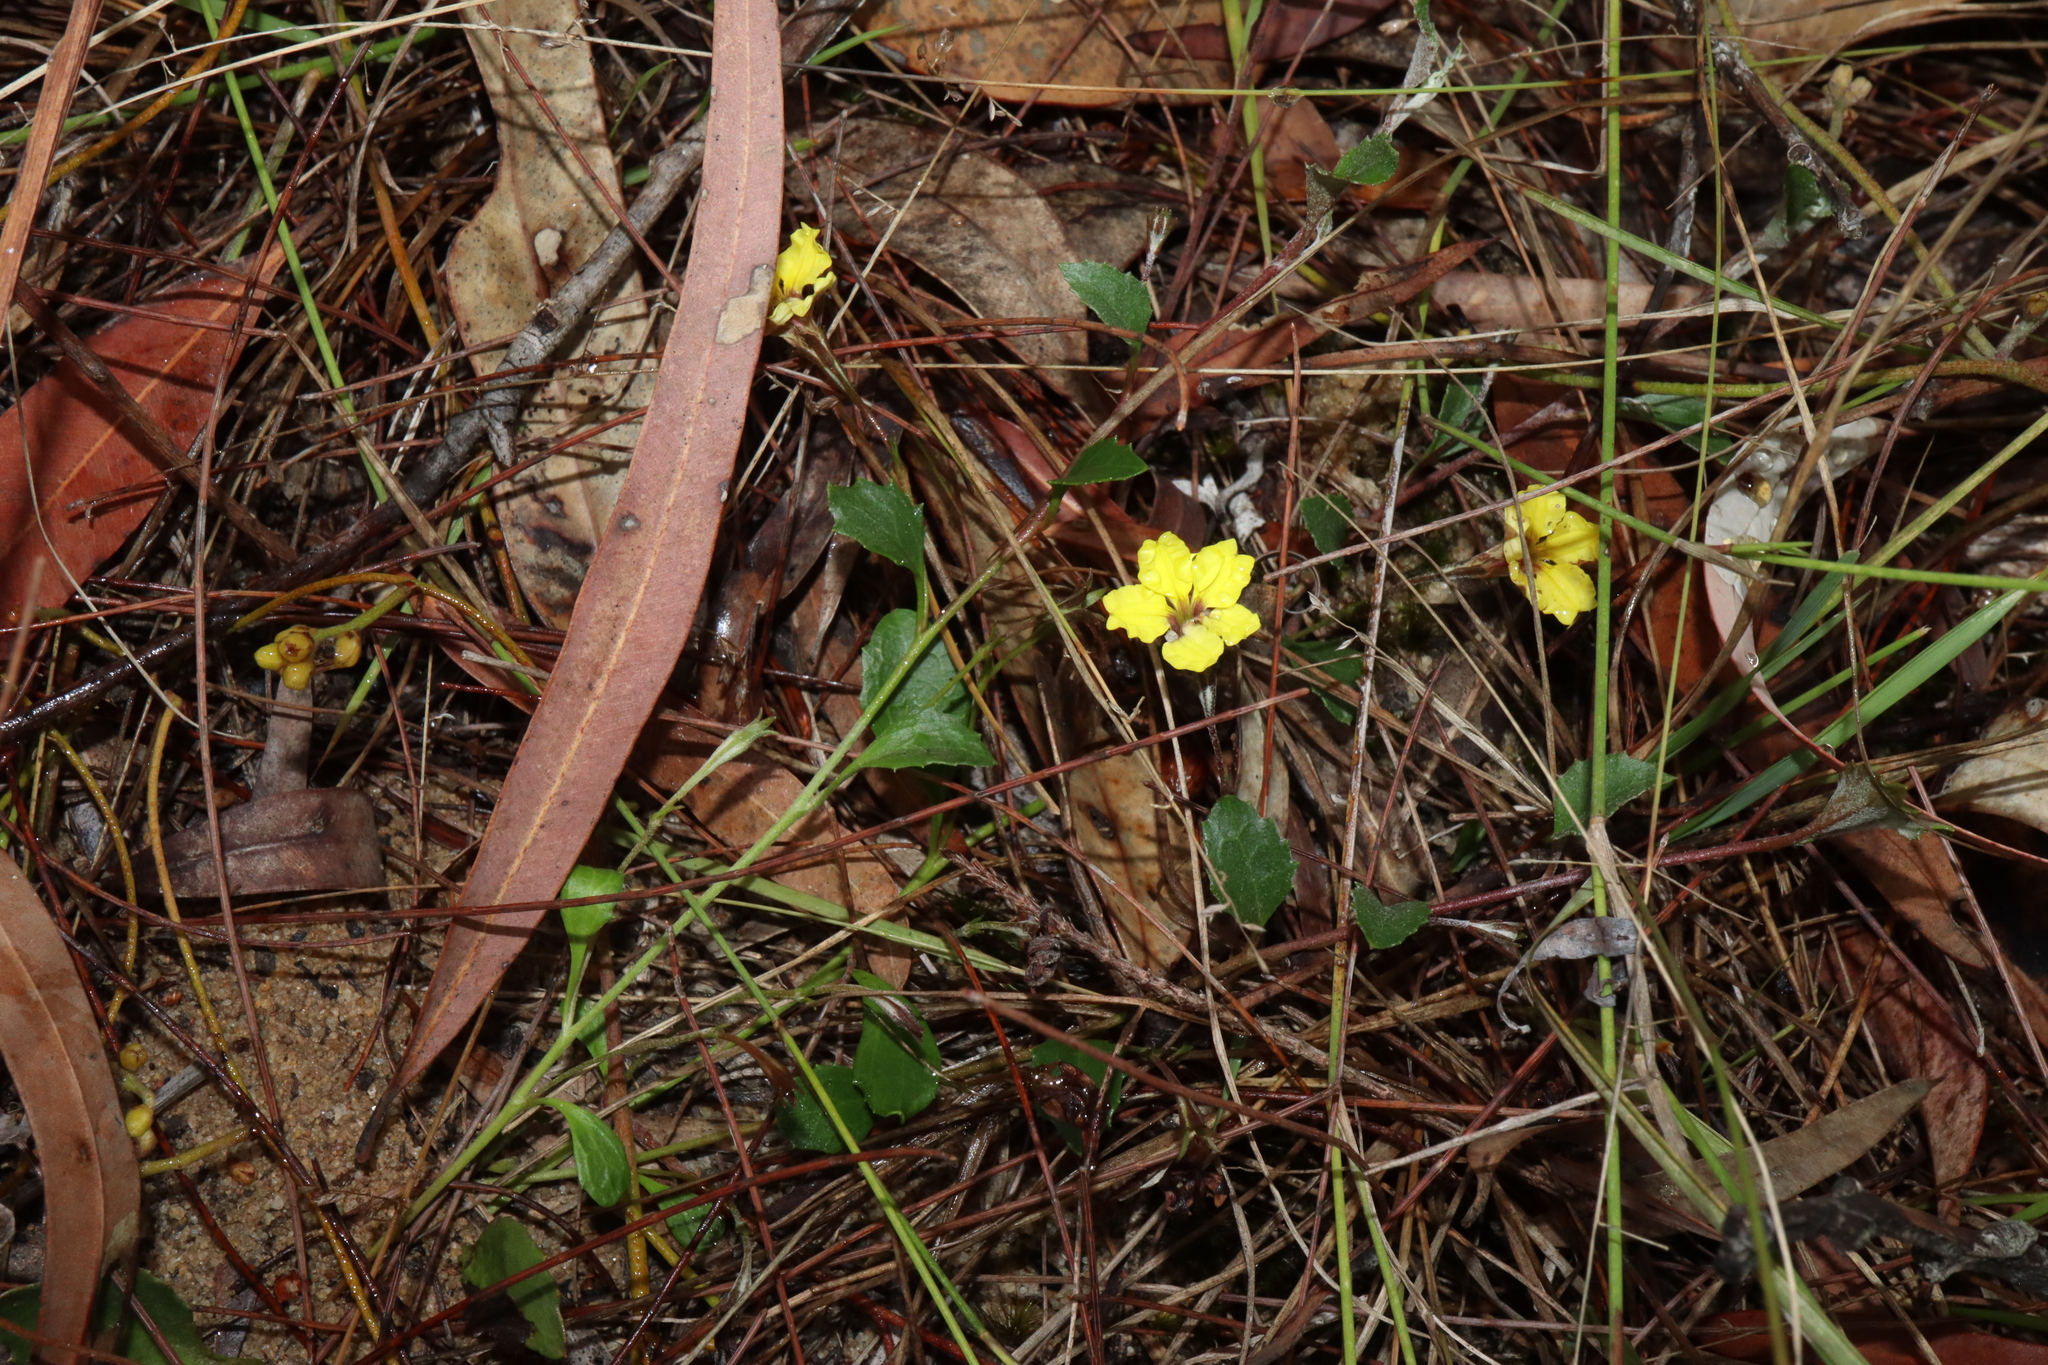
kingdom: Plantae
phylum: Tracheophyta
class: Magnoliopsida
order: Asterales
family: Goodeniaceae
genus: Goodenia
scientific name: Goodenia hederacea
